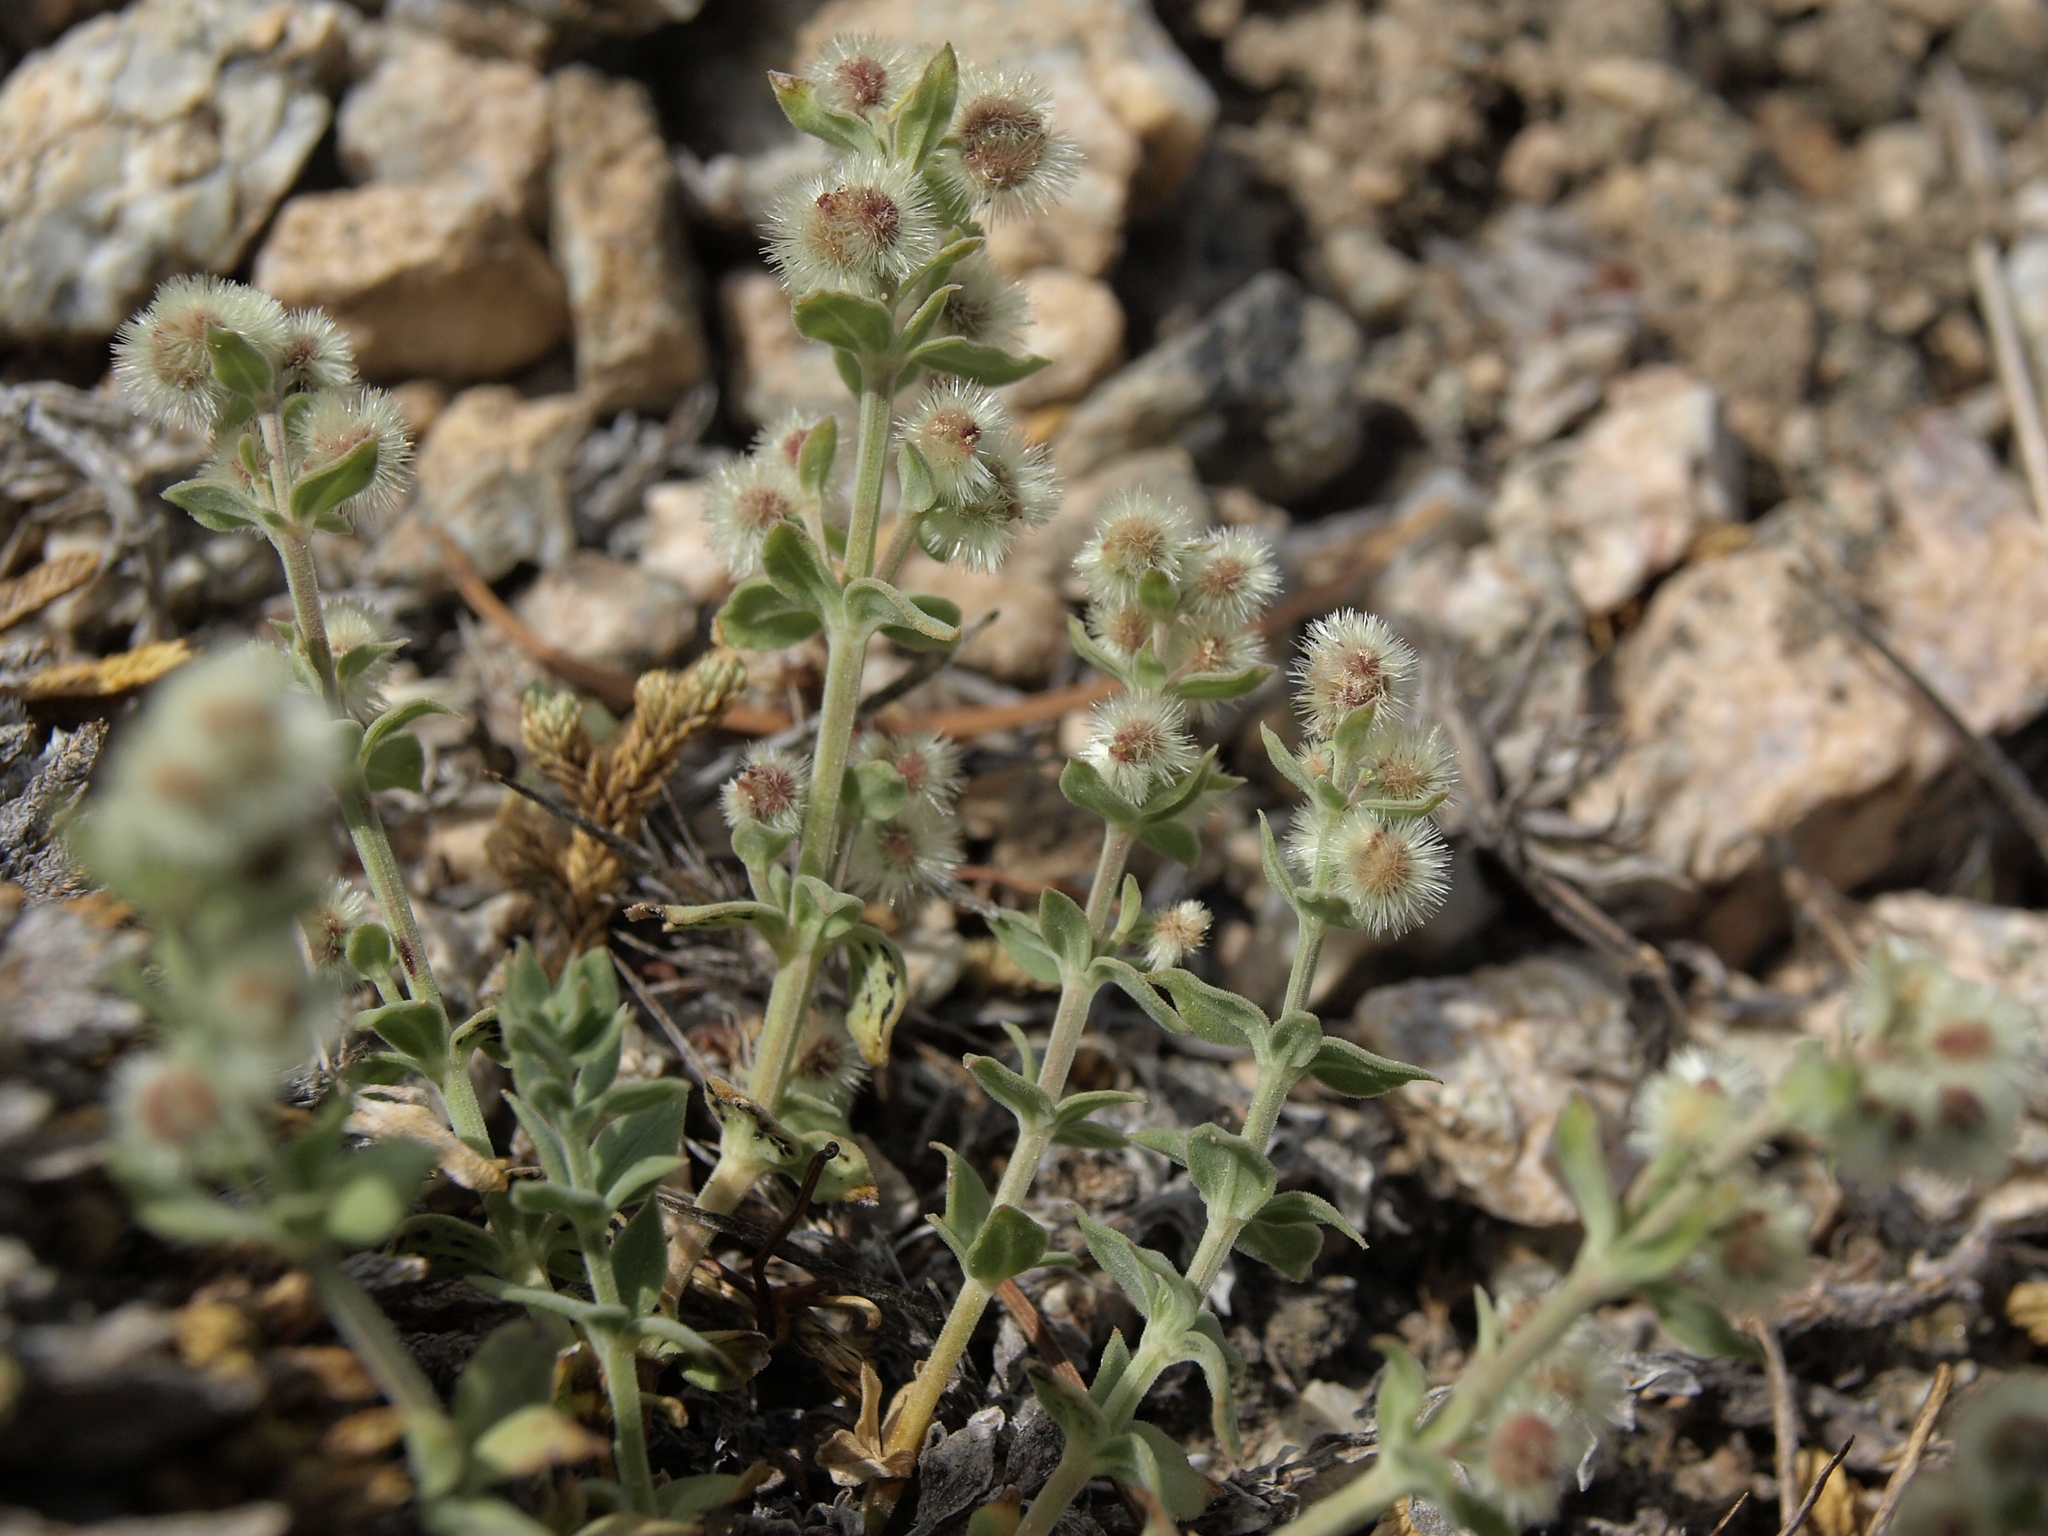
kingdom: Plantae
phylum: Tracheophyta
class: Magnoliopsida
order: Gentianales
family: Rubiaceae
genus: Galium
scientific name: Galium hypotrichium
